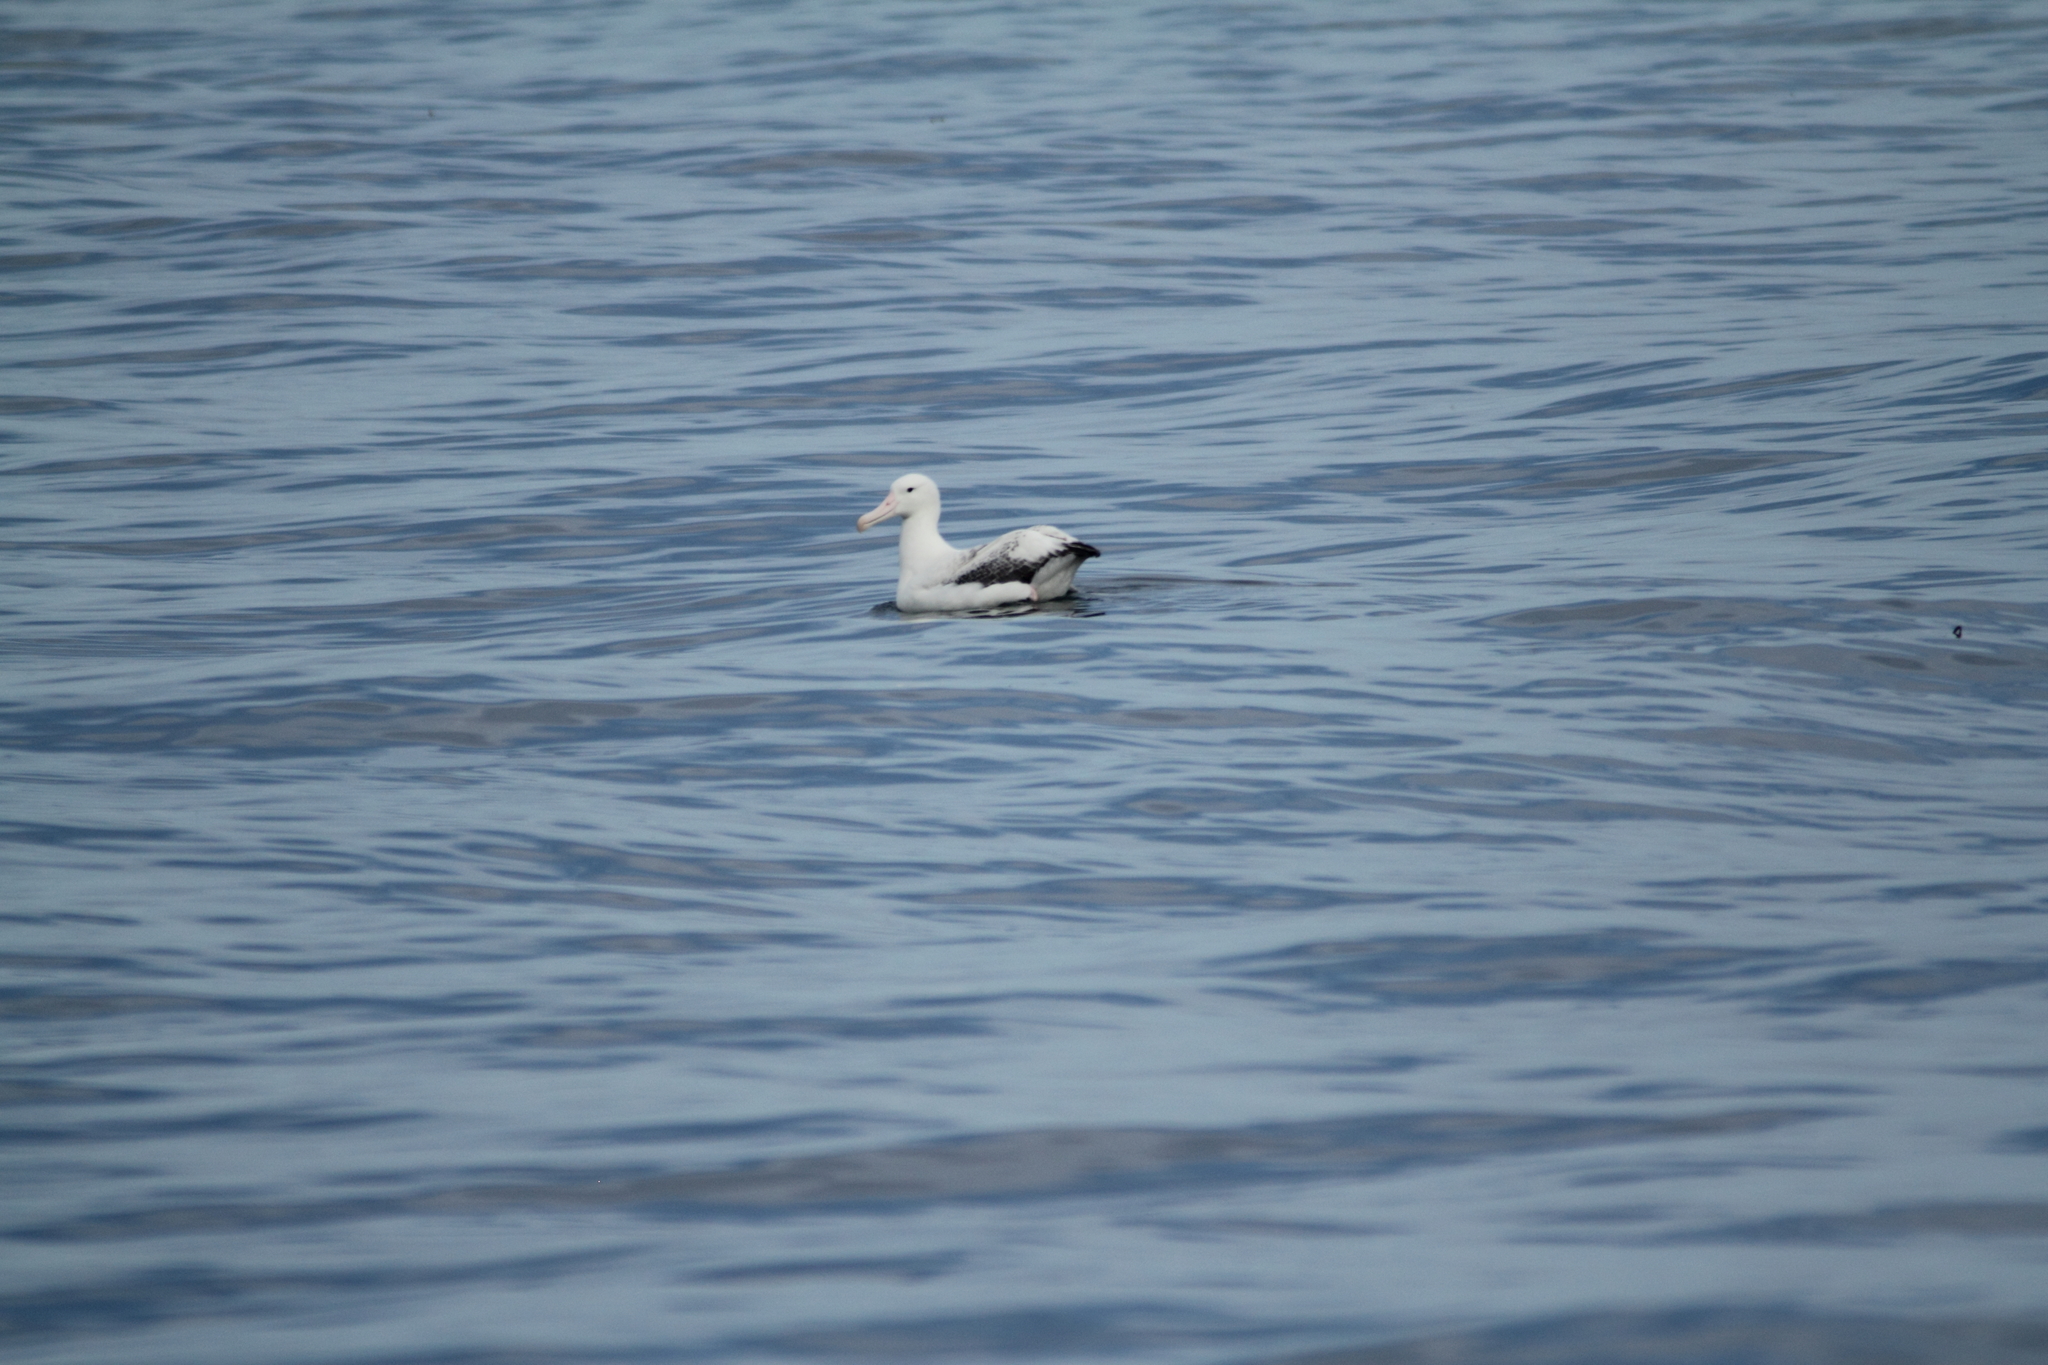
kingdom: Animalia
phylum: Chordata
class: Aves
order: Procellariiformes
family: Diomedeidae
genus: Diomedea
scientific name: Diomedea epomophora
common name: Southern royal albatross
